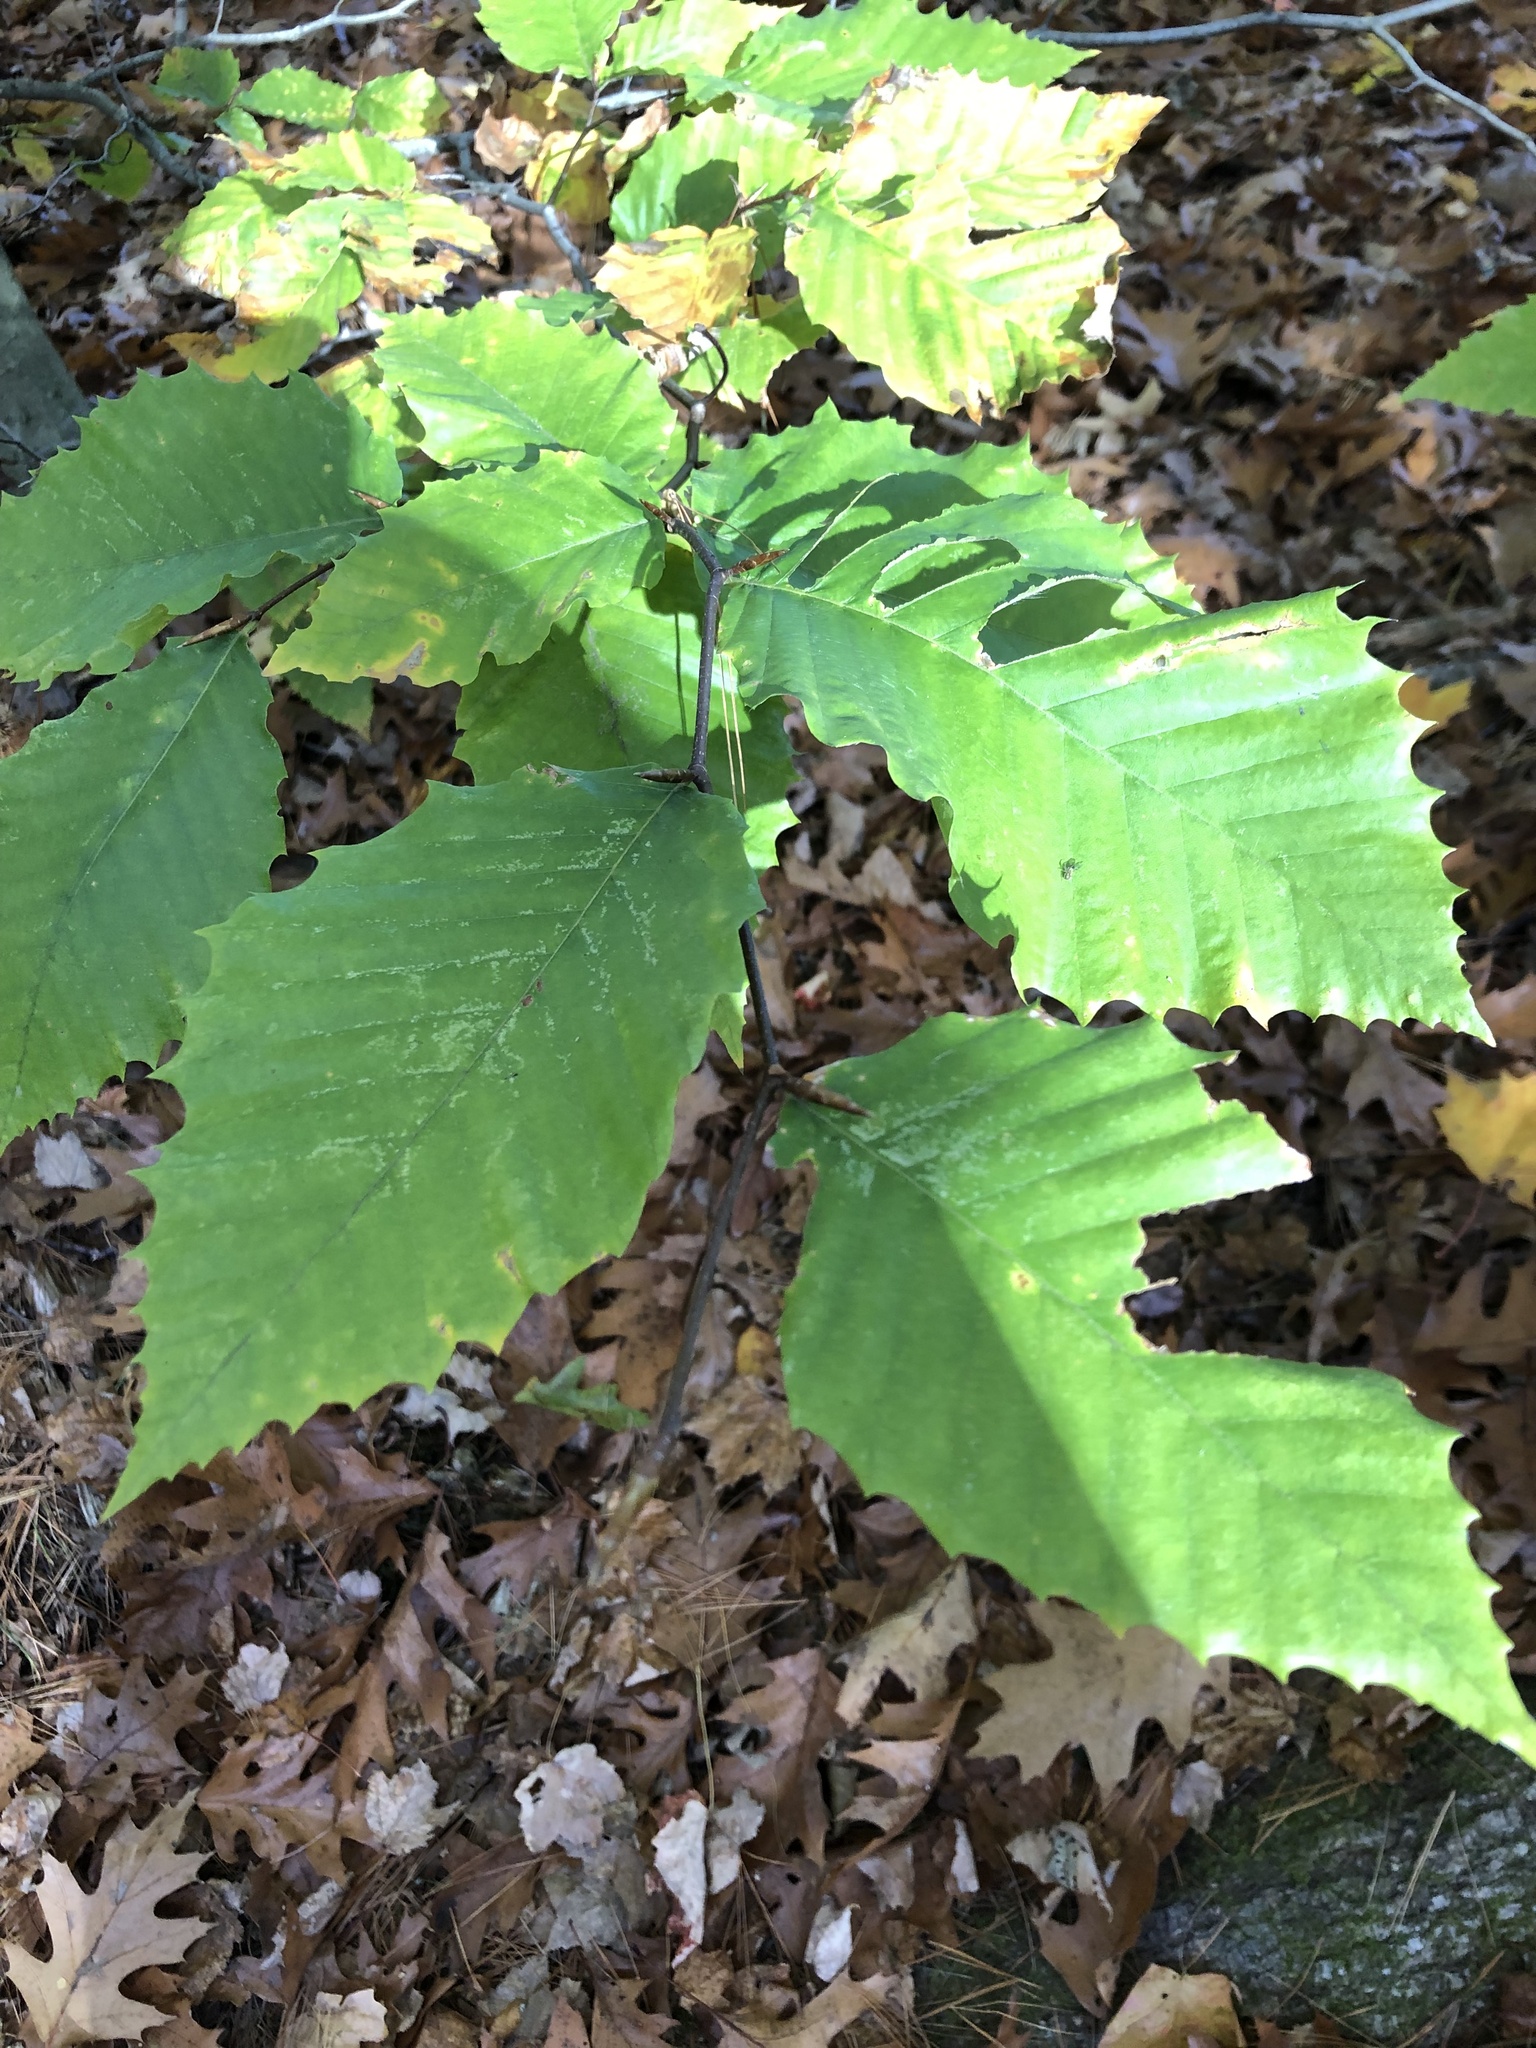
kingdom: Plantae
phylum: Tracheophyta
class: Magnoliopsida
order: Fagales
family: Fagaceae
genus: Fagus
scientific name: Fagus grandifolia
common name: American beech
